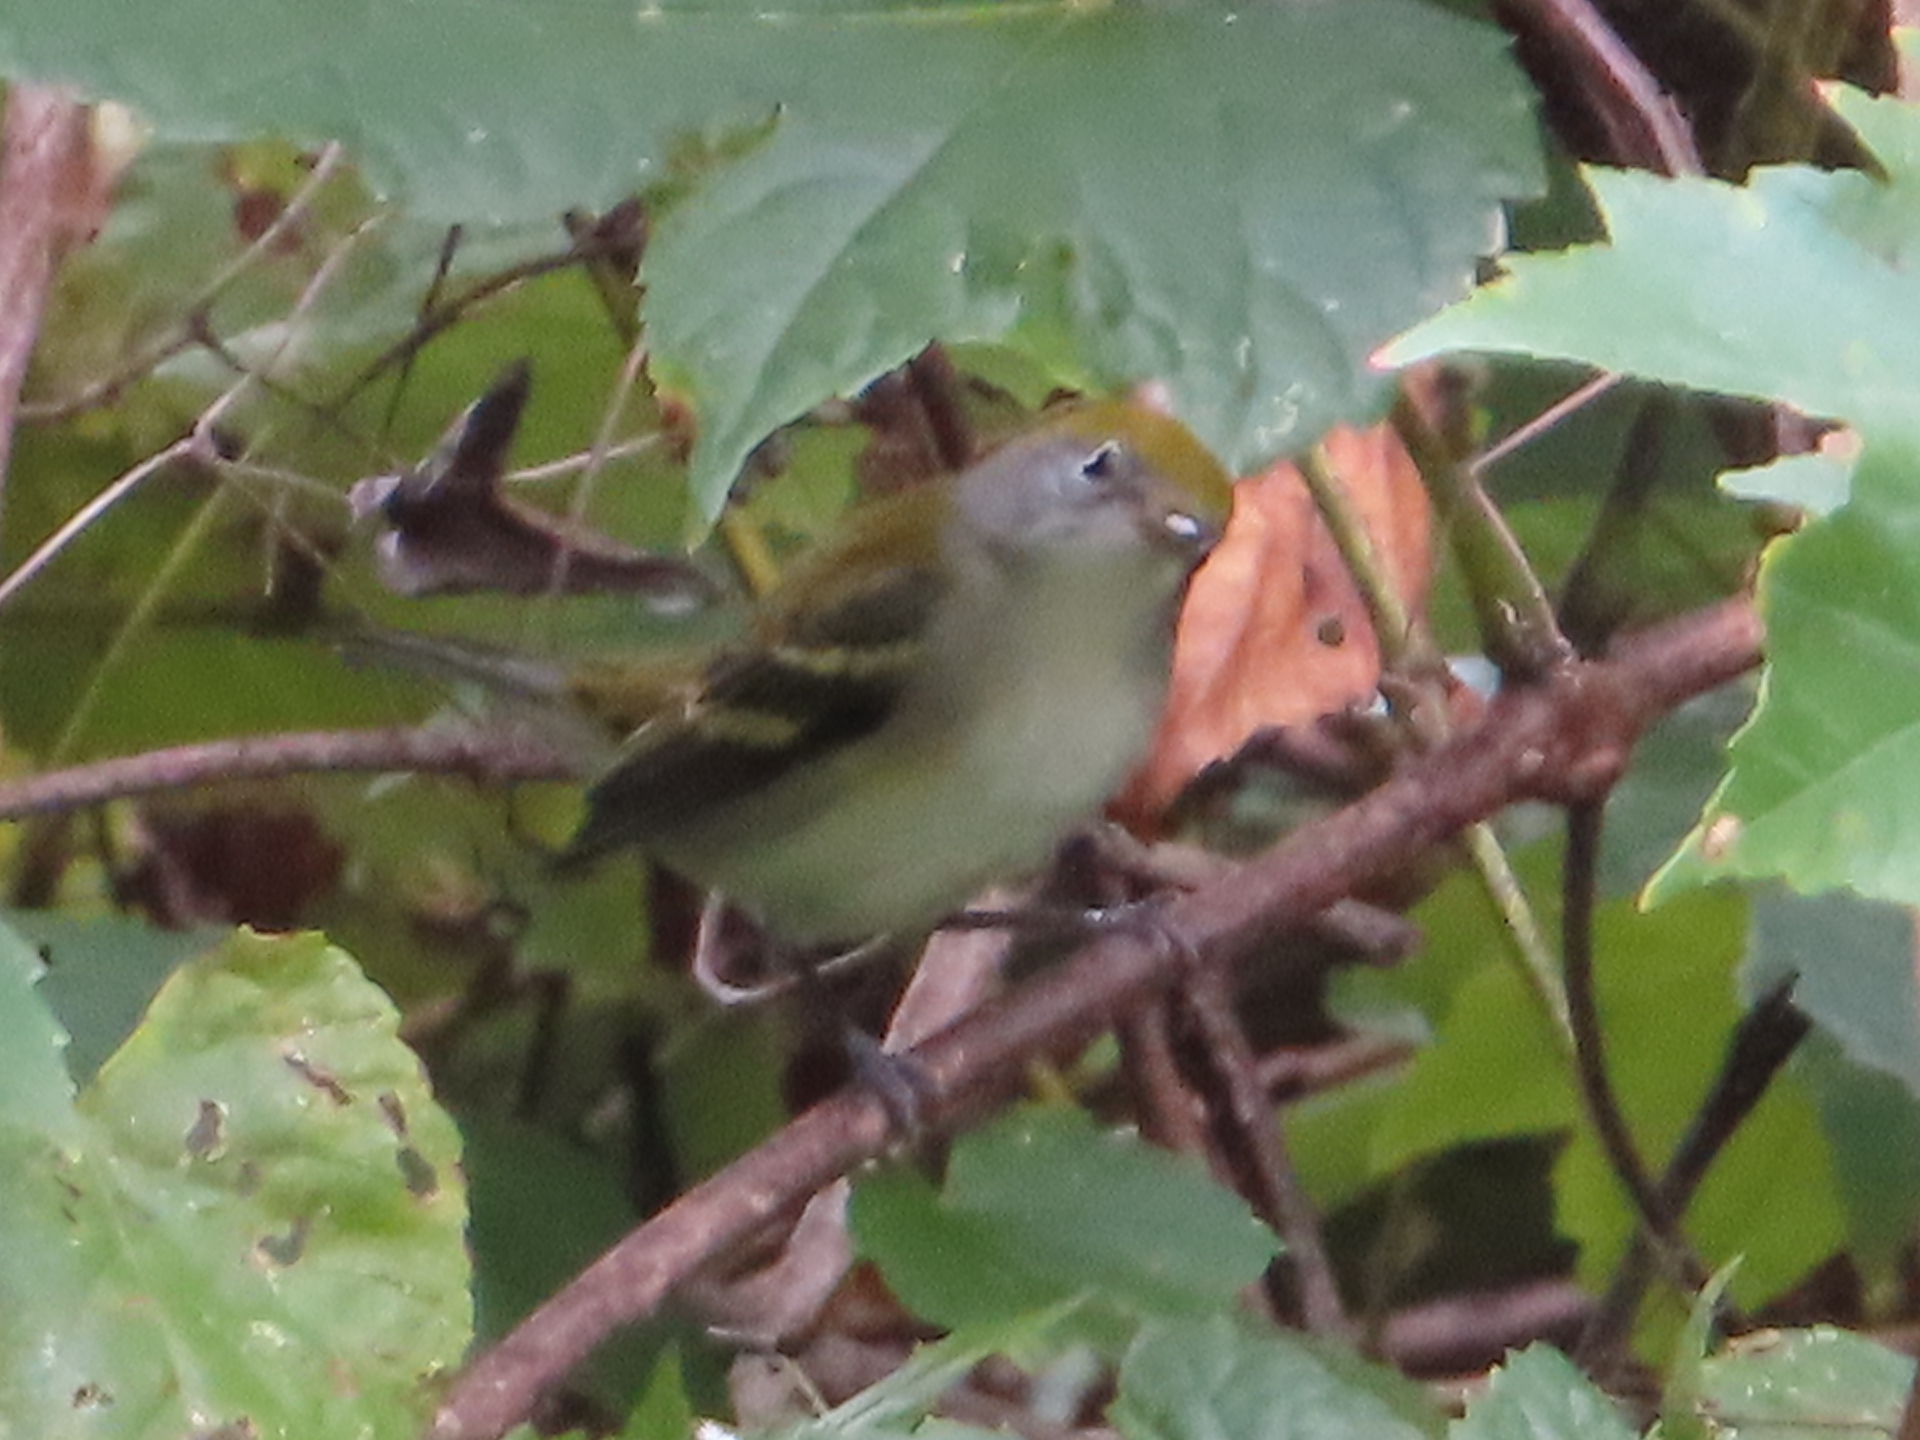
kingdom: Animalia
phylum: Chordata
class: Aves
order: Passeriformes
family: Parulidae
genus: Setophaga
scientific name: Setophaga pensylvanica
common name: Chestnut-sided warbler
